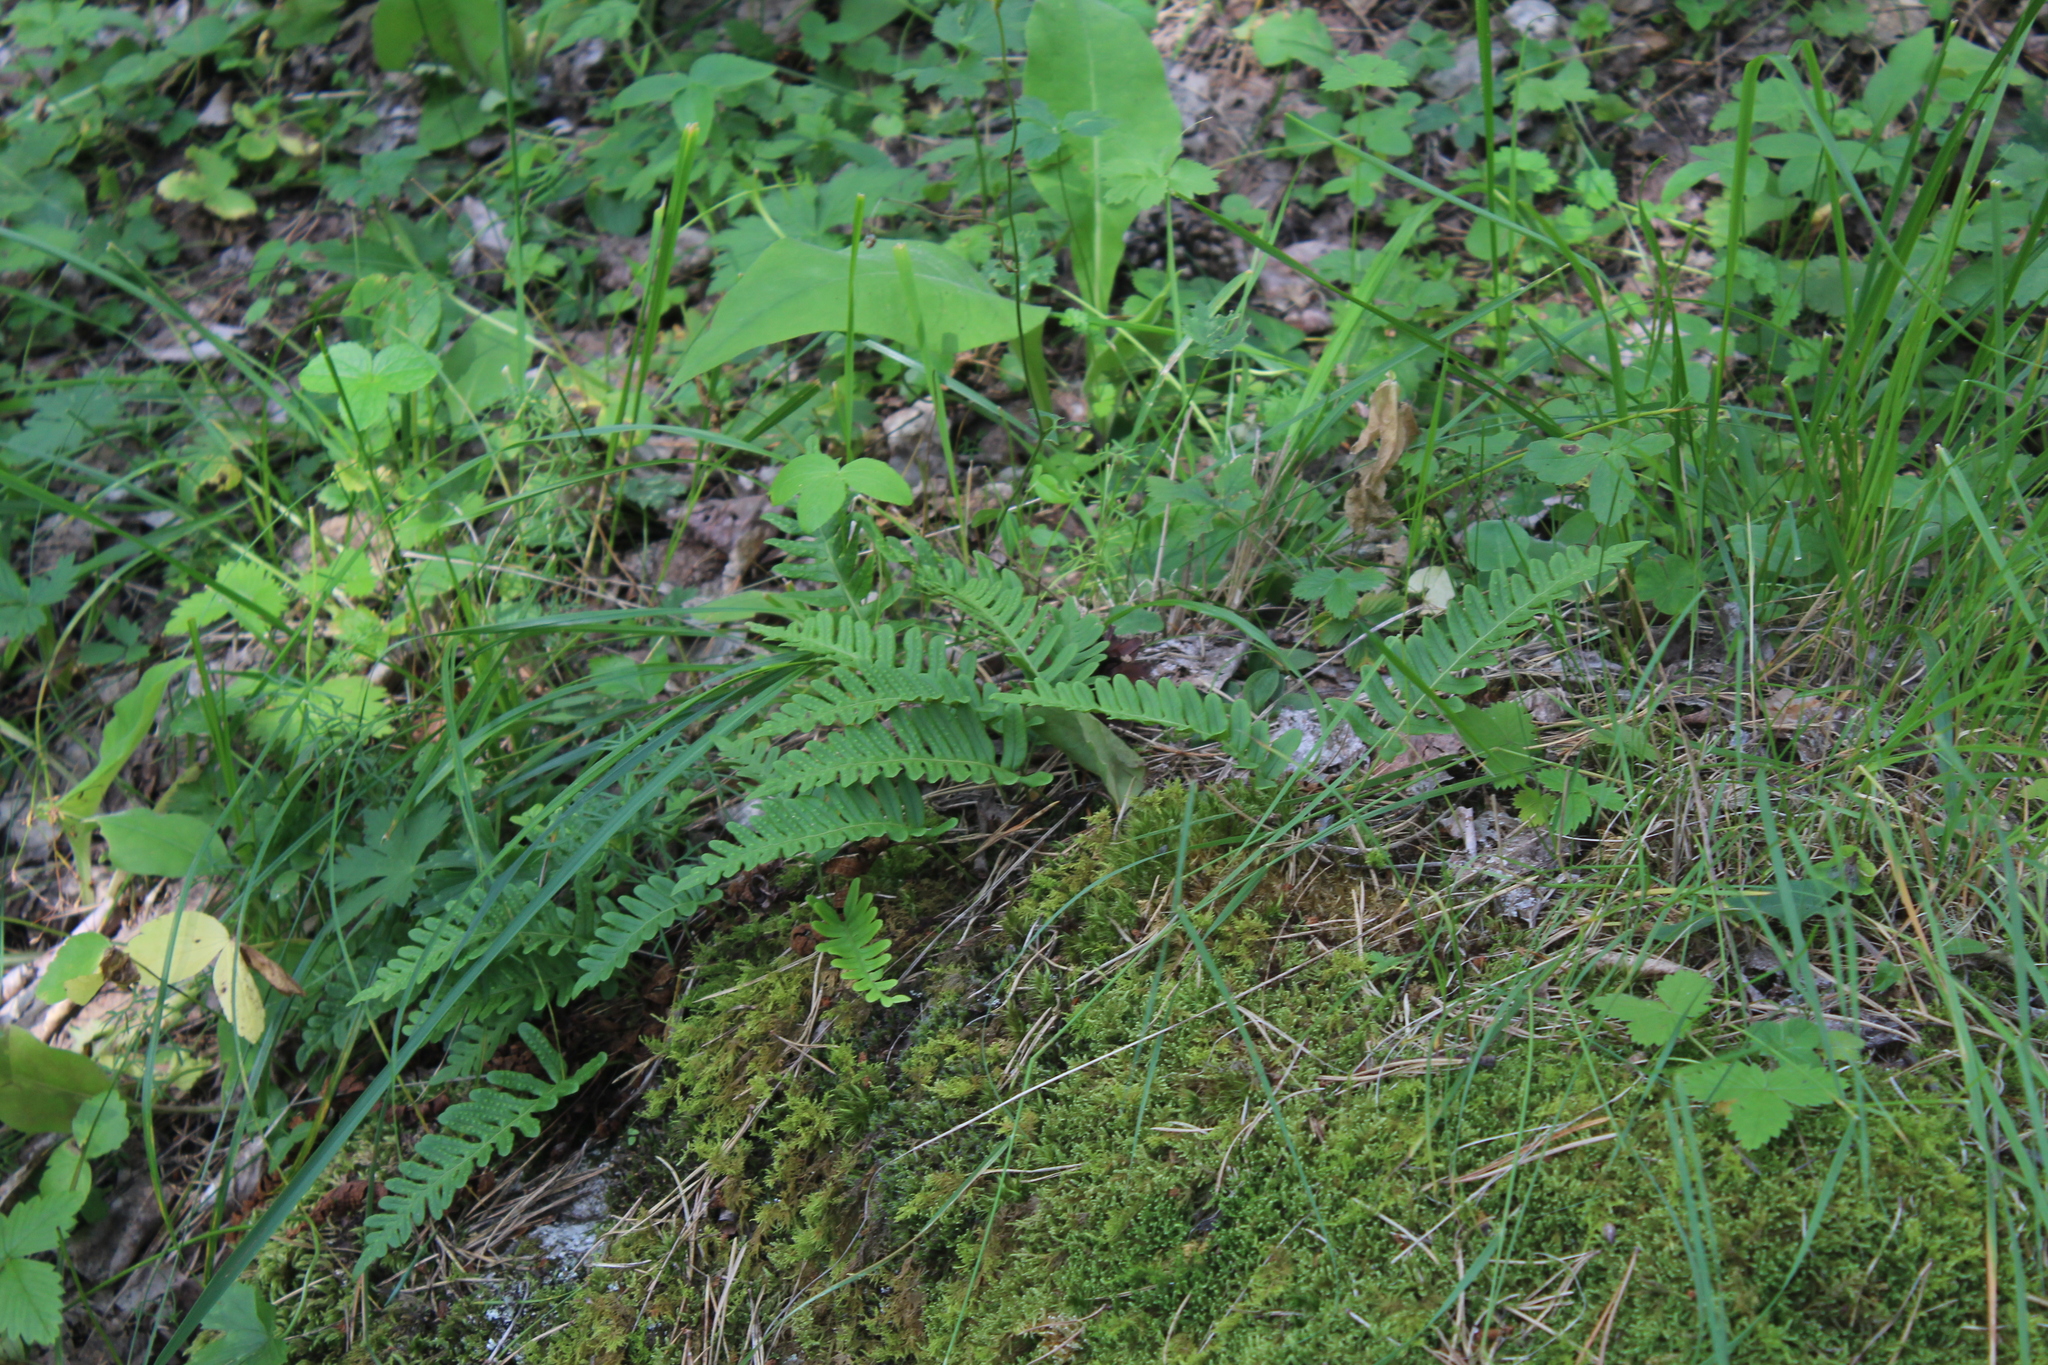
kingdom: Plantae
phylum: Tracheophyta
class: Polypodiopsida
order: Polypodiales
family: Polypodiaceae
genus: Polypodium
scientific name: Polypodium vulgare
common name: Common polypody
